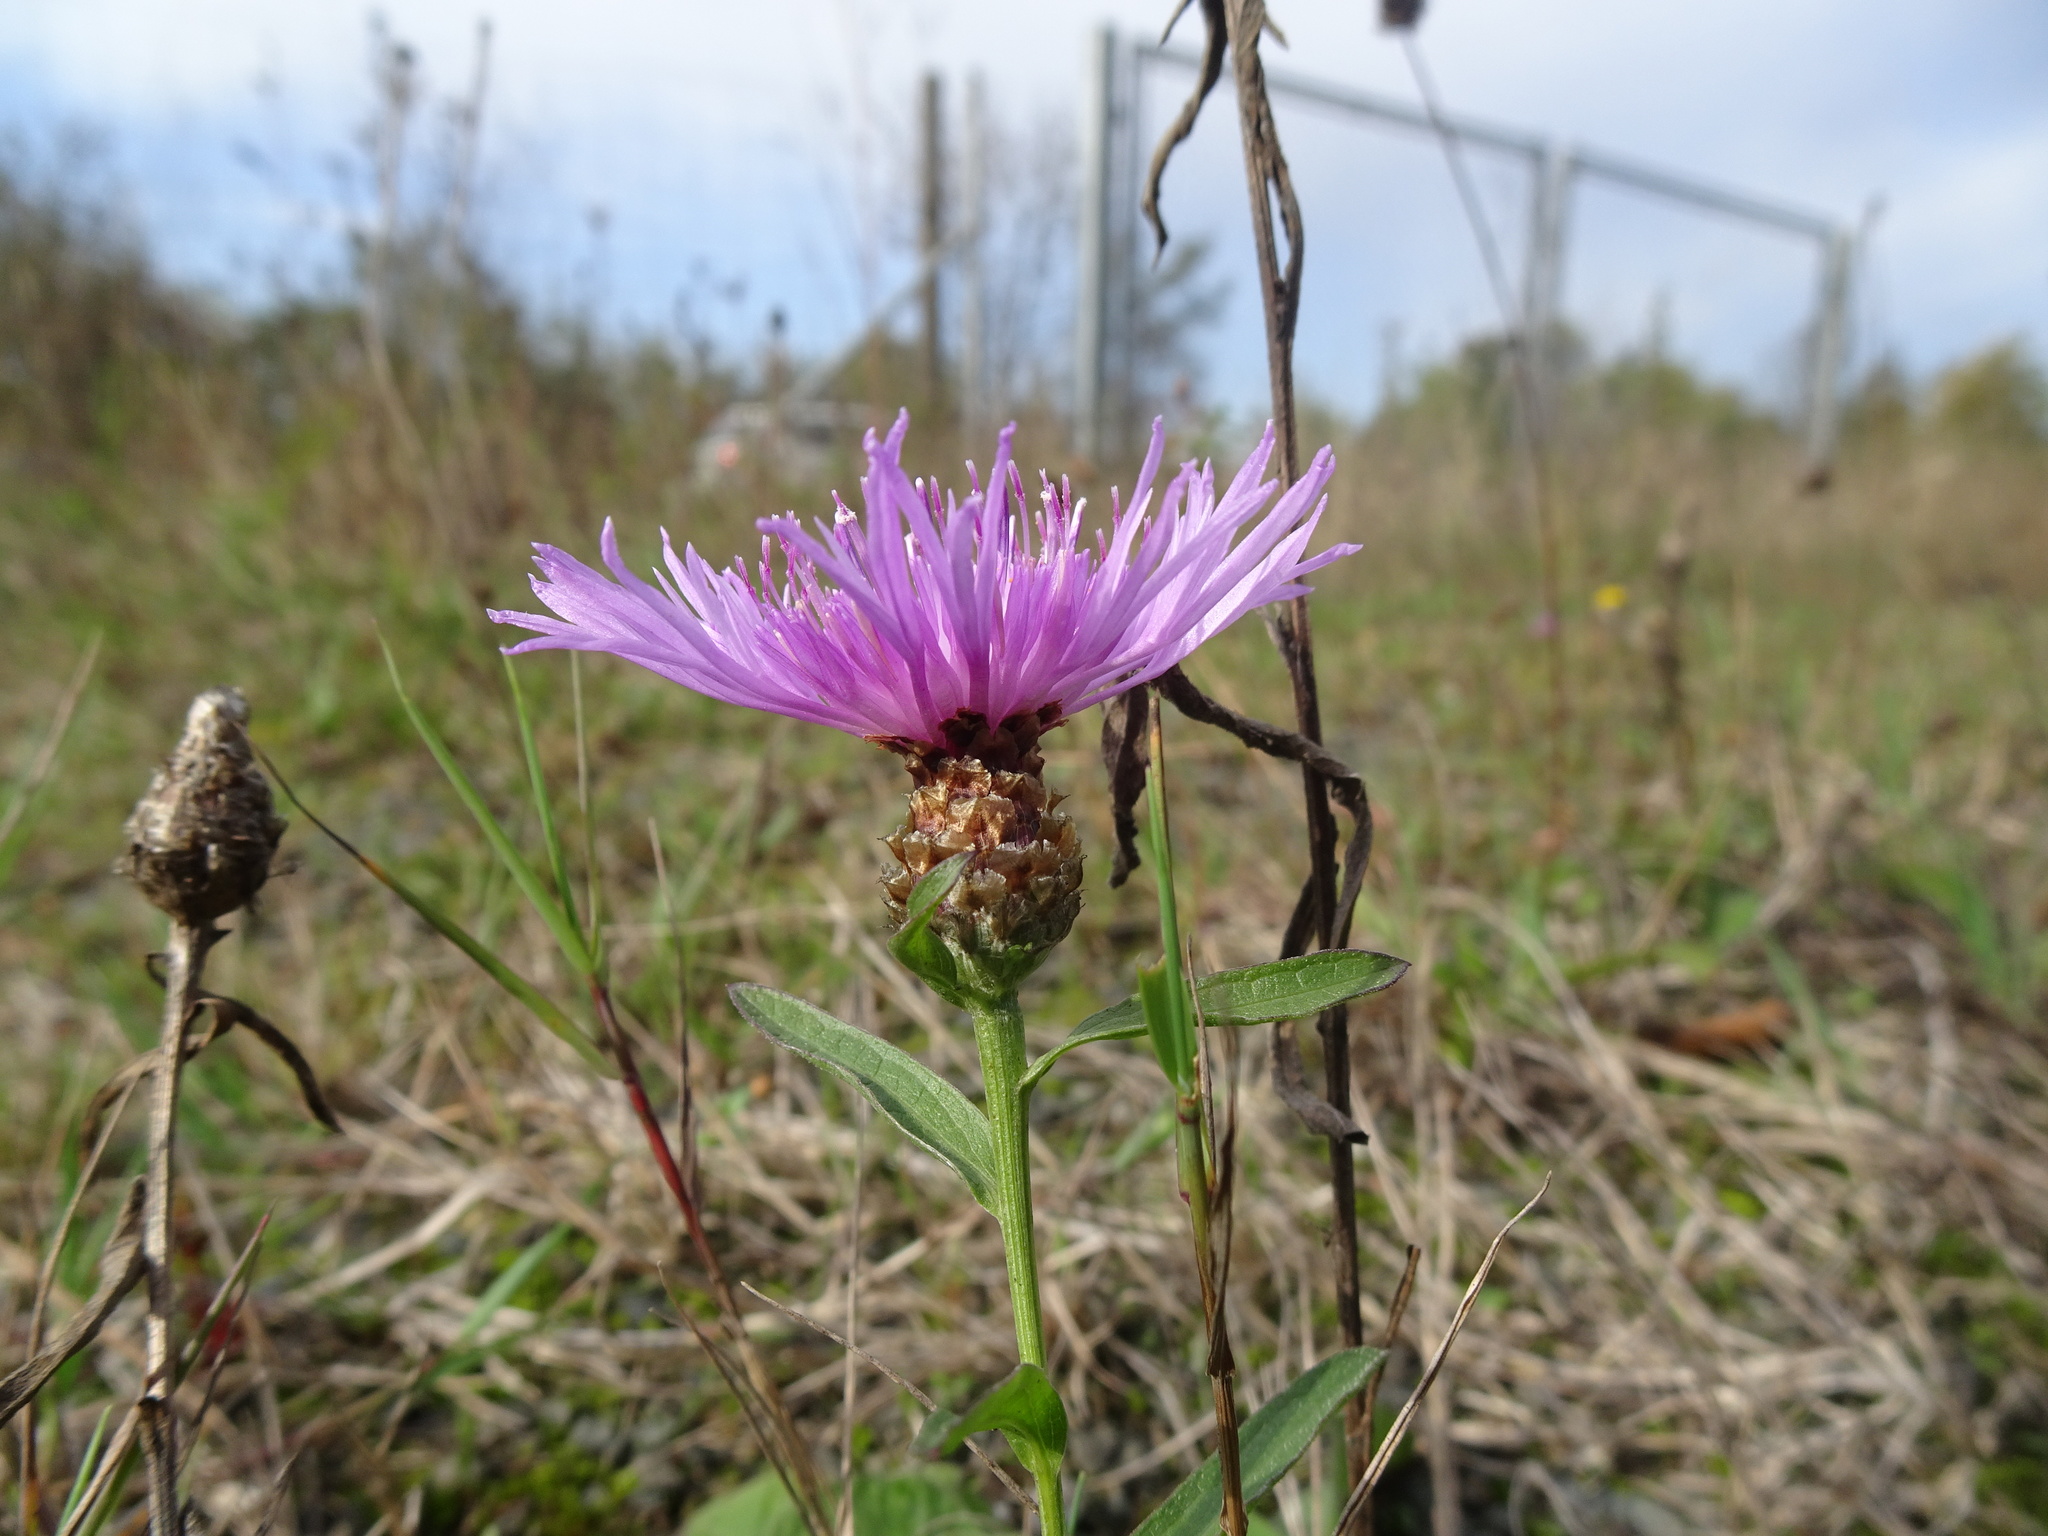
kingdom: Plantae
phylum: Tracheophyta
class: Magnoliopsida
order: Asterales
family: Asteraceae
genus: Centaurea
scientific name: Centaurea jacea
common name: Brown knapweed
